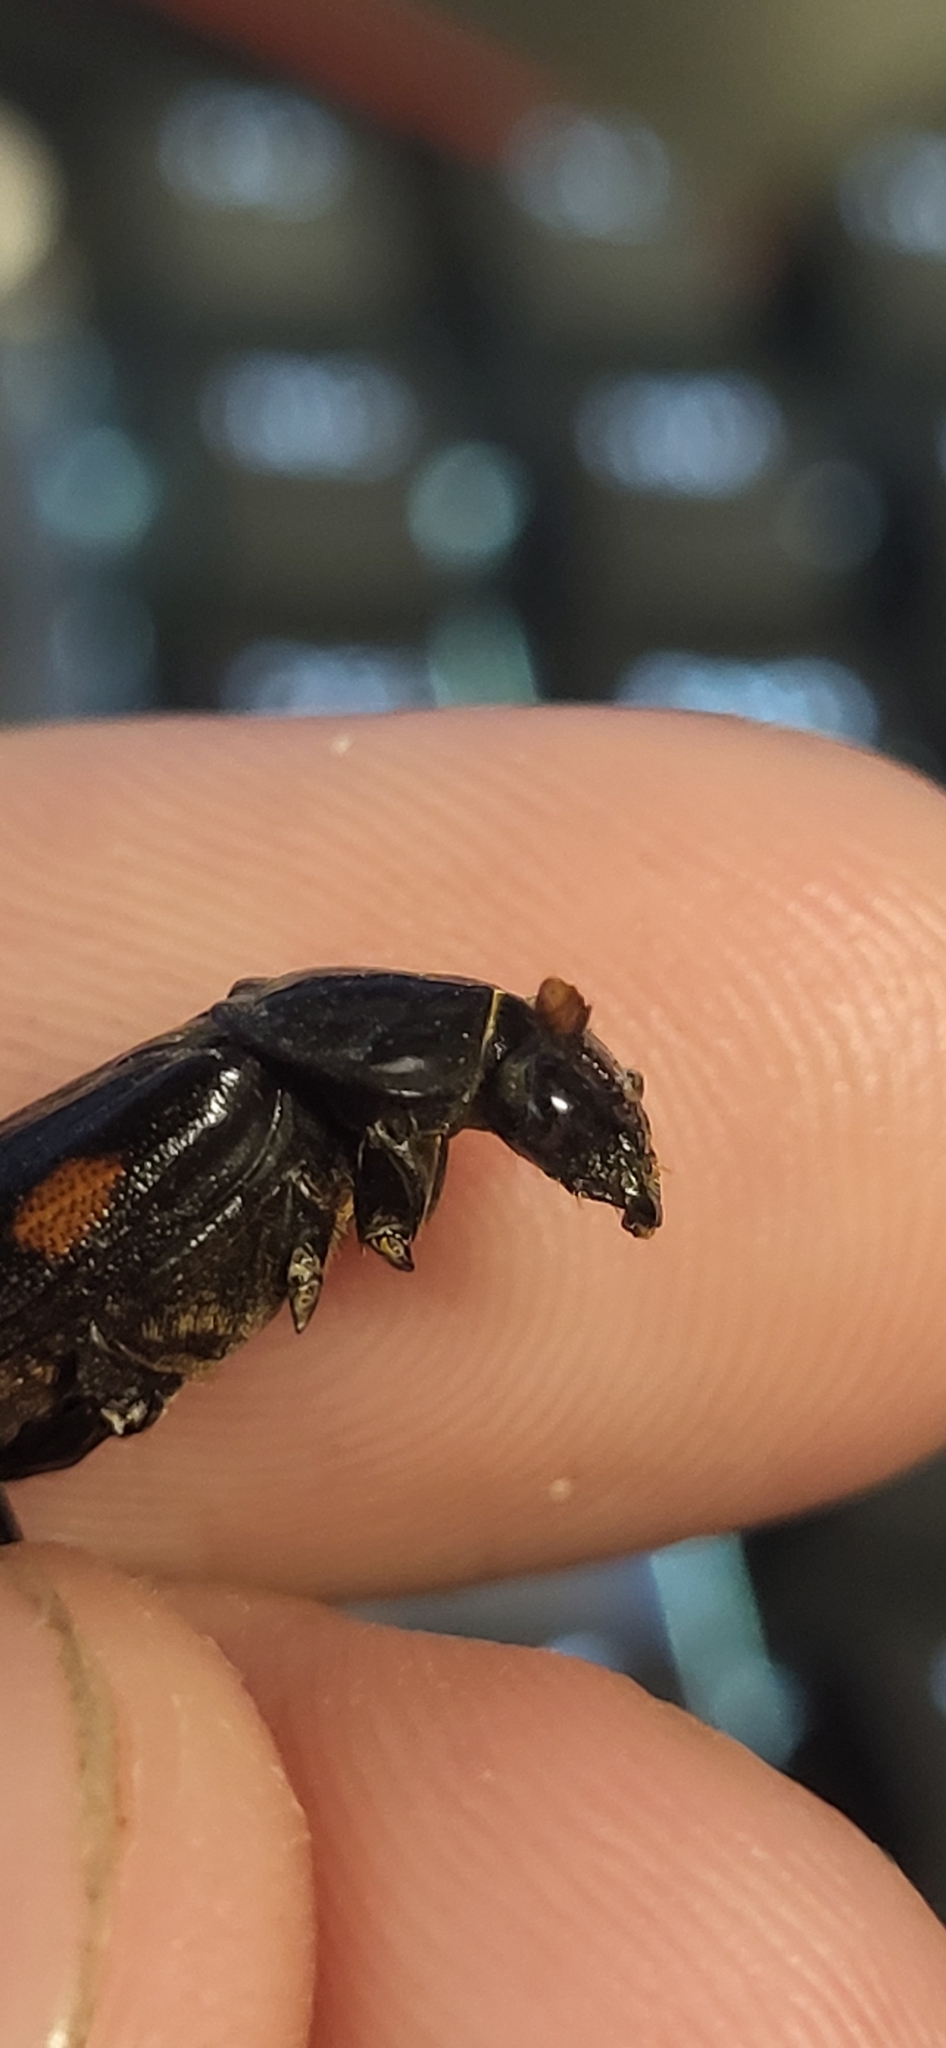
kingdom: Animalia
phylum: Arthropoda
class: Insecta
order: Coleoptera
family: Staphylinidae
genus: Nicrophorus
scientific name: Nicrophorus pustulatus
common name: Pustulated carrion beetle
